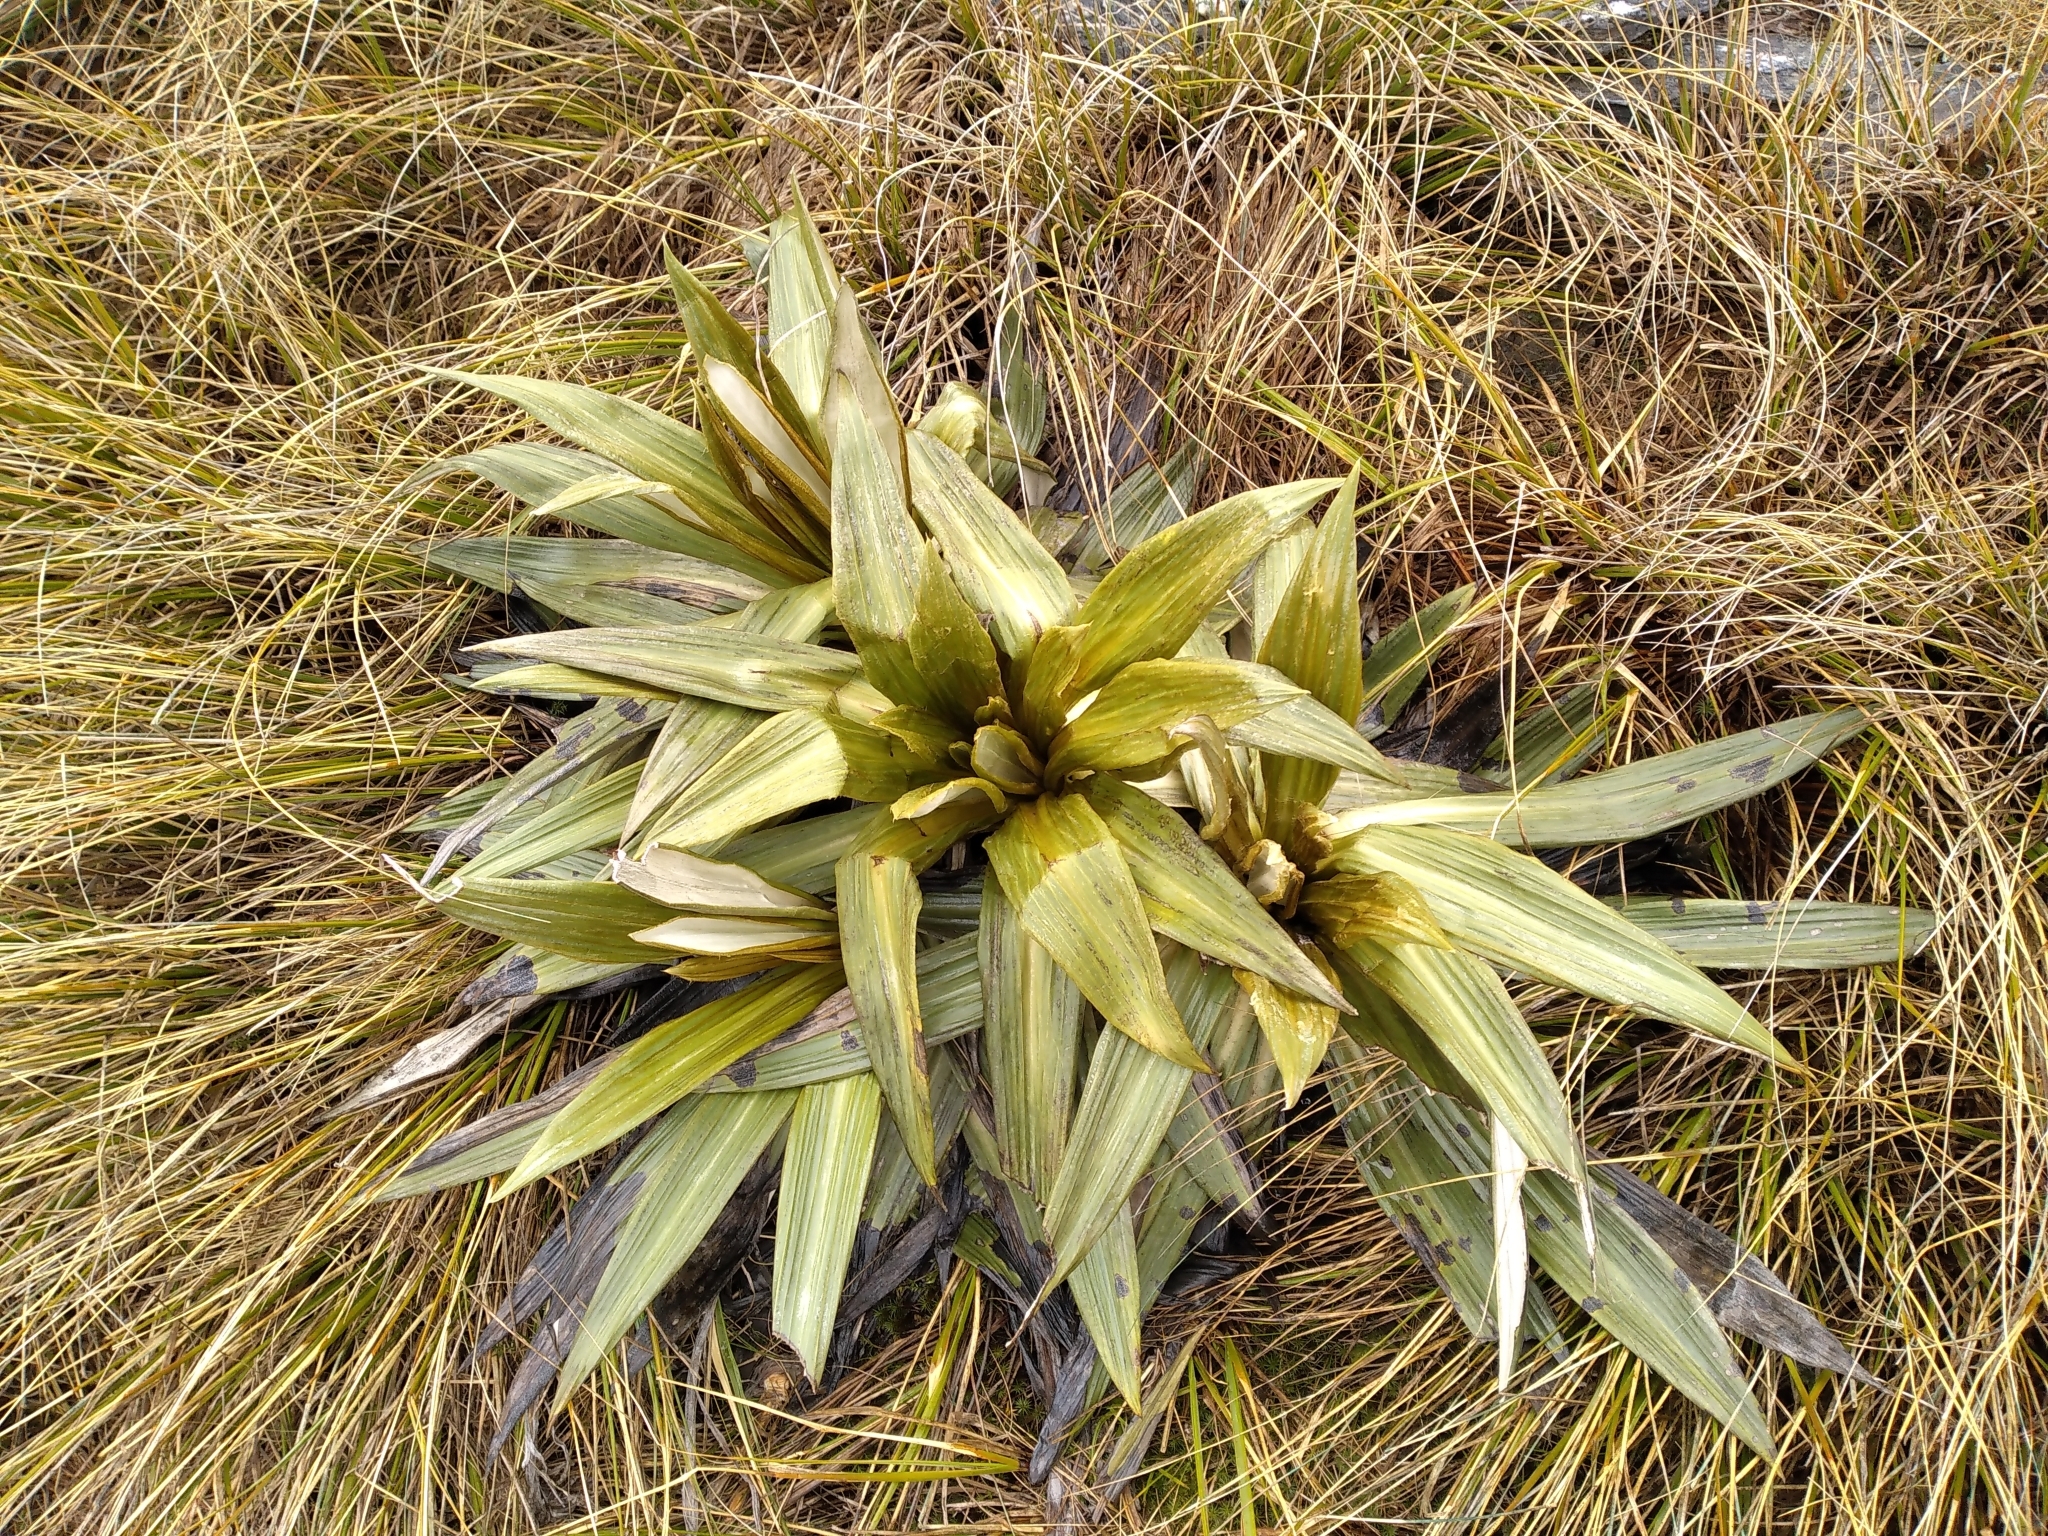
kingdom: Plantae
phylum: Tracheophyta
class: Magnoliopsida
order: Asterales
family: Asteraceae
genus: Celmisia
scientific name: Celmisia semicordata
